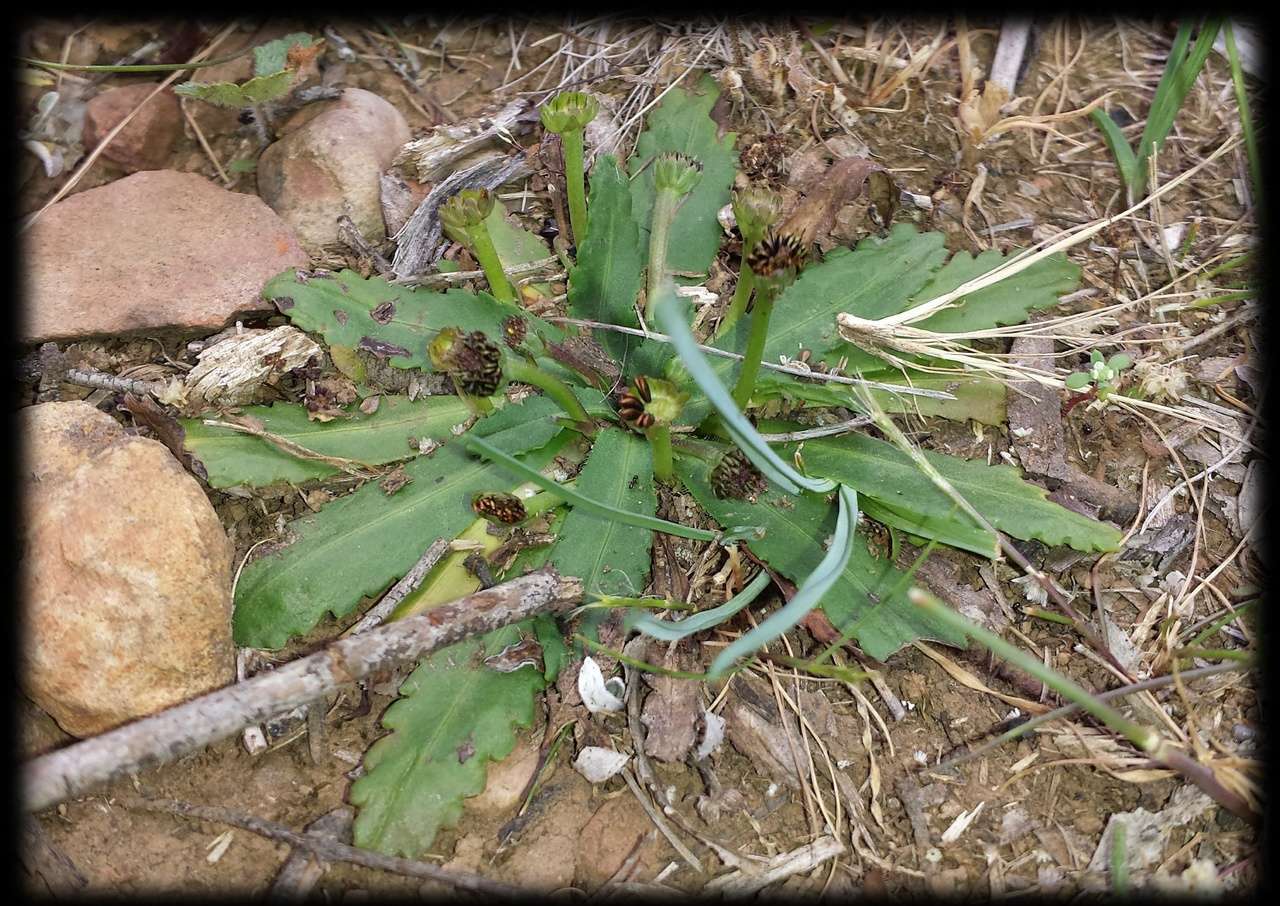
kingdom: Plantae
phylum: Tracheophyta
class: Magnoliopsida
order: Asterales
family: Asteraceae
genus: Solenogyne
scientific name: Solenogyne dominii
